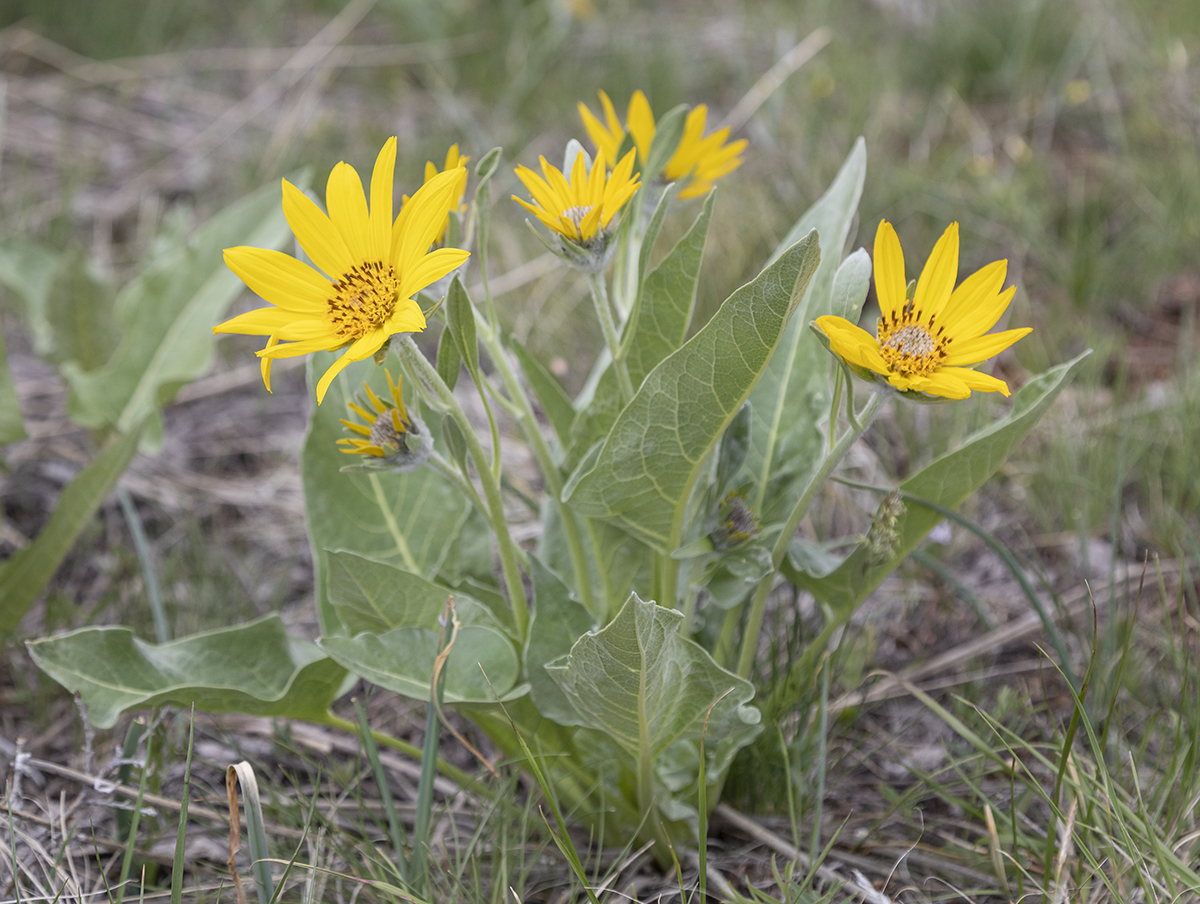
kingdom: Plantae
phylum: Tracheophyta
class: Magnoliopsida
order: Asterales
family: Asteraceae
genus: Wyethia
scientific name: Wyethia sagittata
